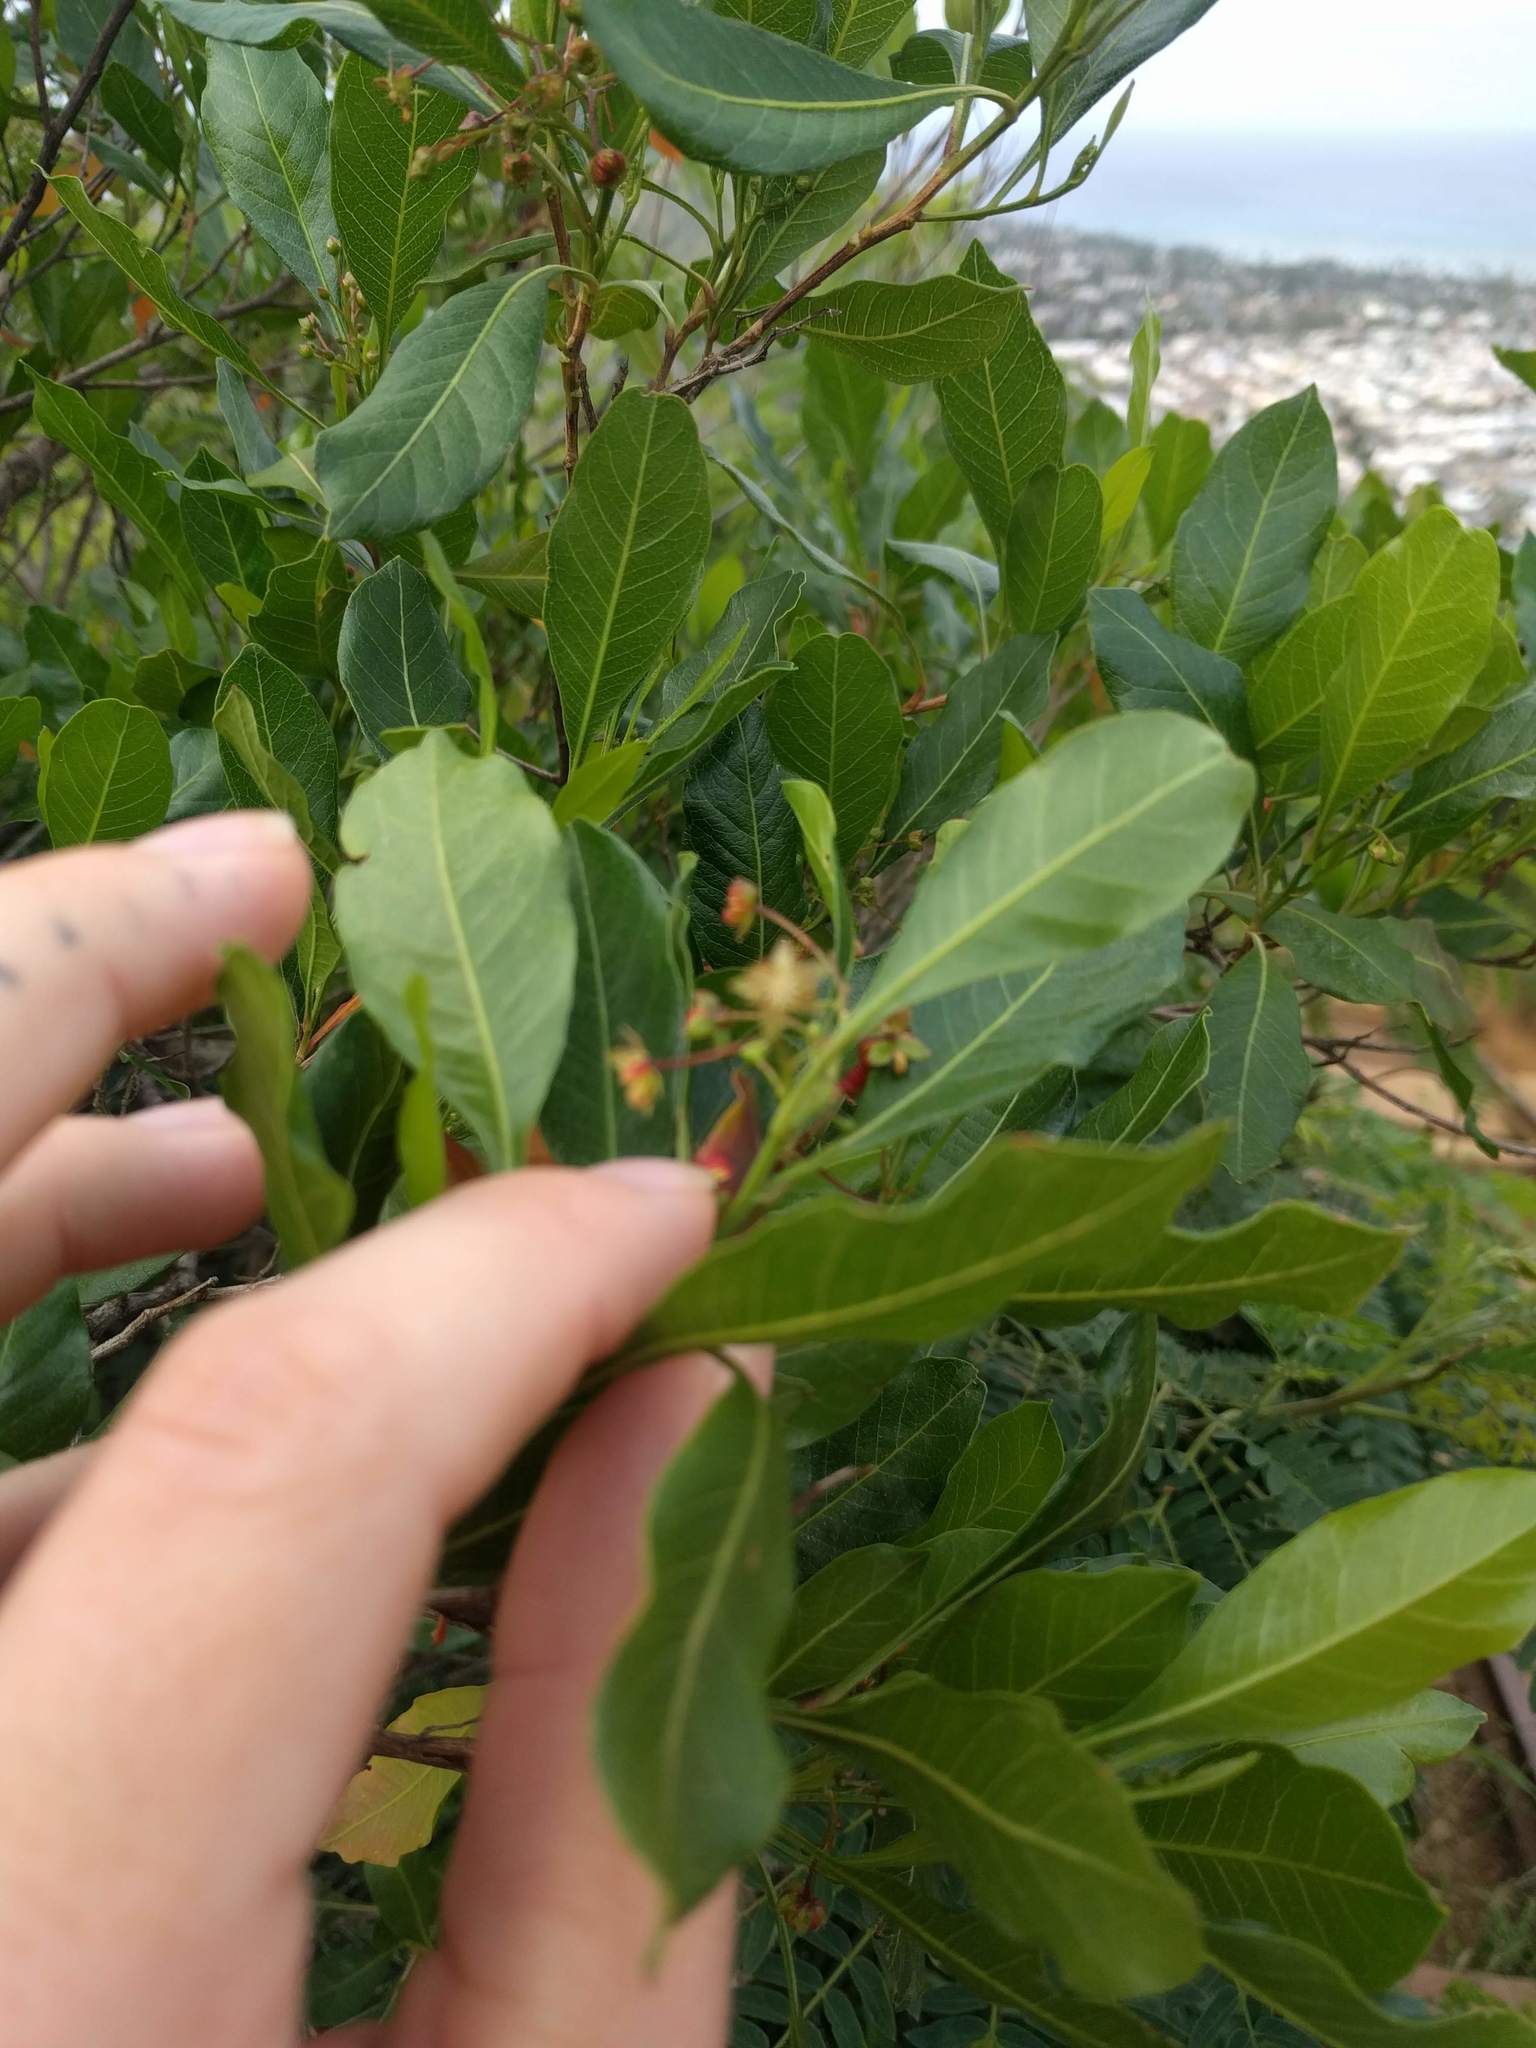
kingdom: Plantae
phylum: Tracheophyta
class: Magnoliopsida
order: Sapindales
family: Sapindaceae
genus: Dodonaea
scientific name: Dodonaea viscosa
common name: Hopbush
